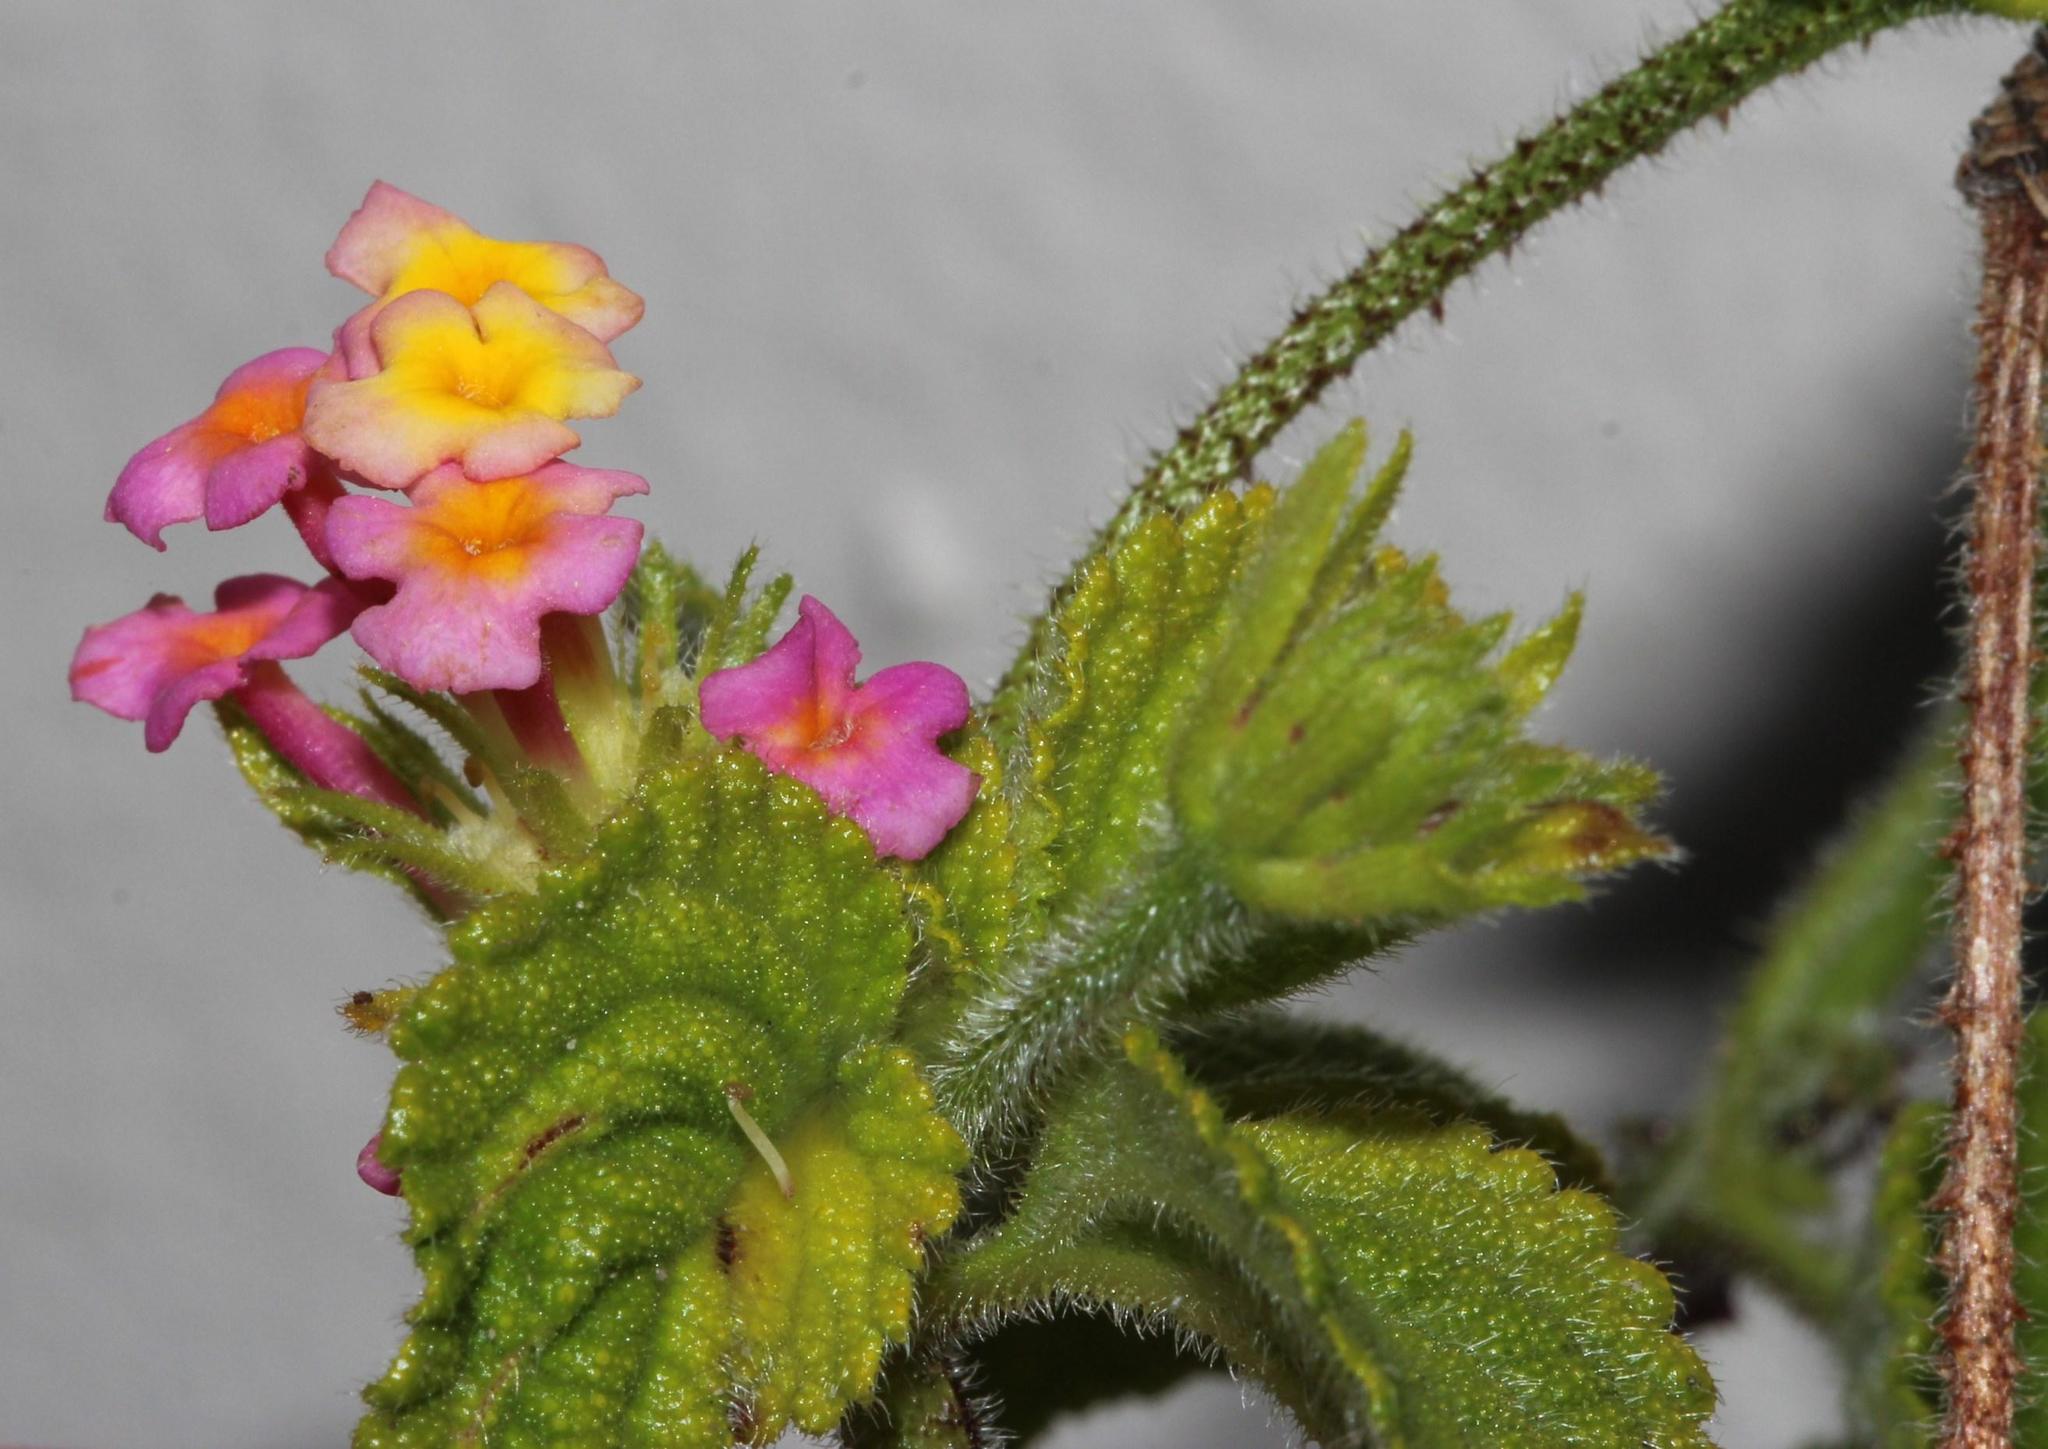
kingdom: Plantae
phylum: Tracheophyta
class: Magnoliopsida
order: Lamiales
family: Verbenaceae
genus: Lantana
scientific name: Lantana camara
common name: Lantana
